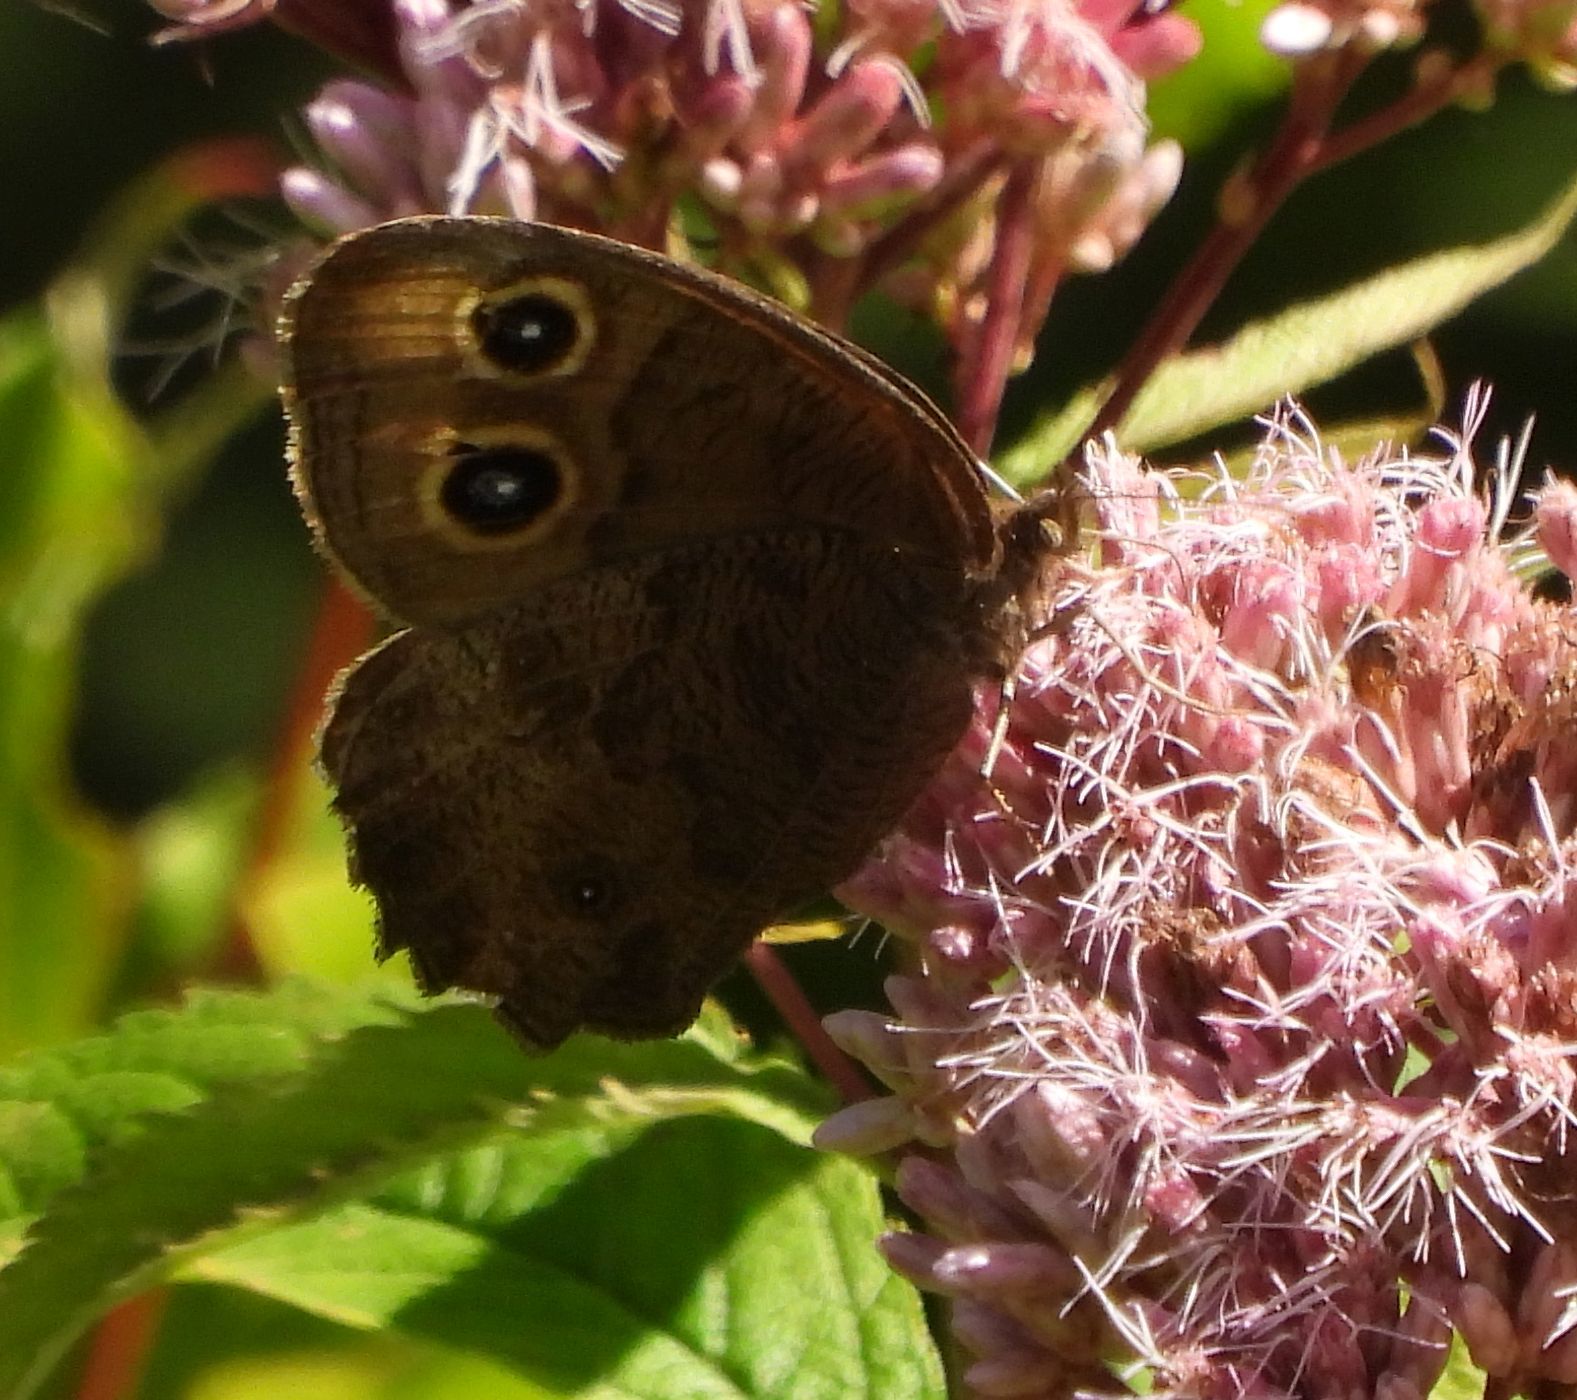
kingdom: Animalia
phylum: Arthropoda
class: Insecta
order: Lepidoptera
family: Nymphalidae
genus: Cercyonis
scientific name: Cercyonis pegala
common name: Common wood-nymph
